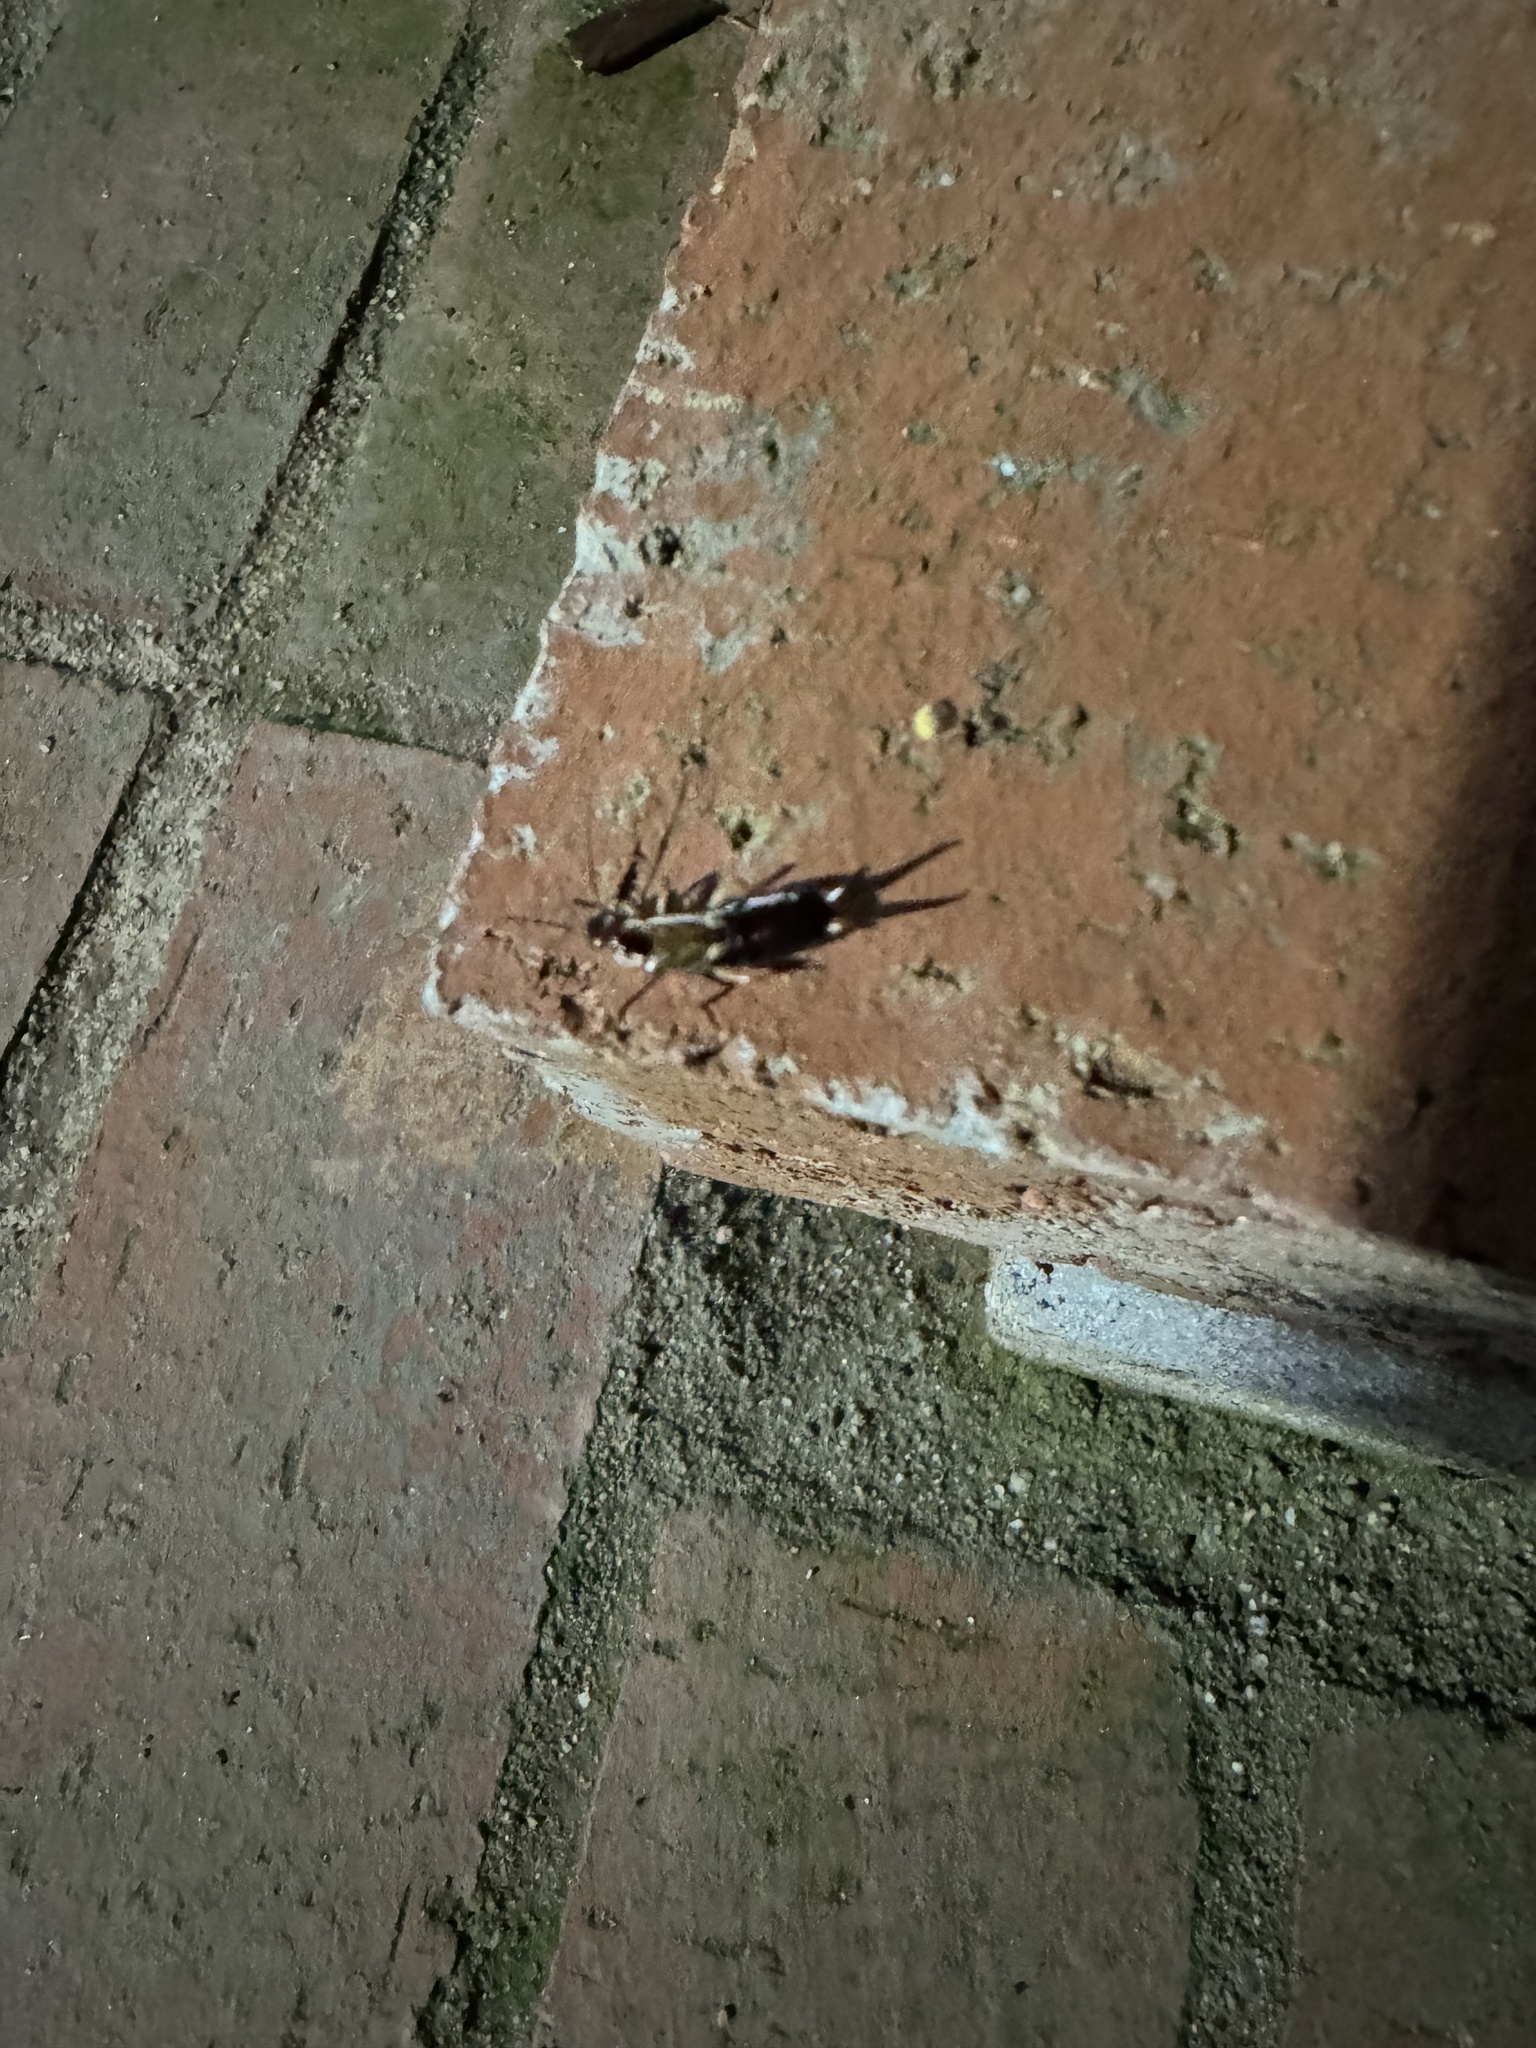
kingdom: Animalia
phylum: Arthropoda
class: Insecta
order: Dermaptera
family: Forficulidae
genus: Forficula
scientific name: Forficula dentata
